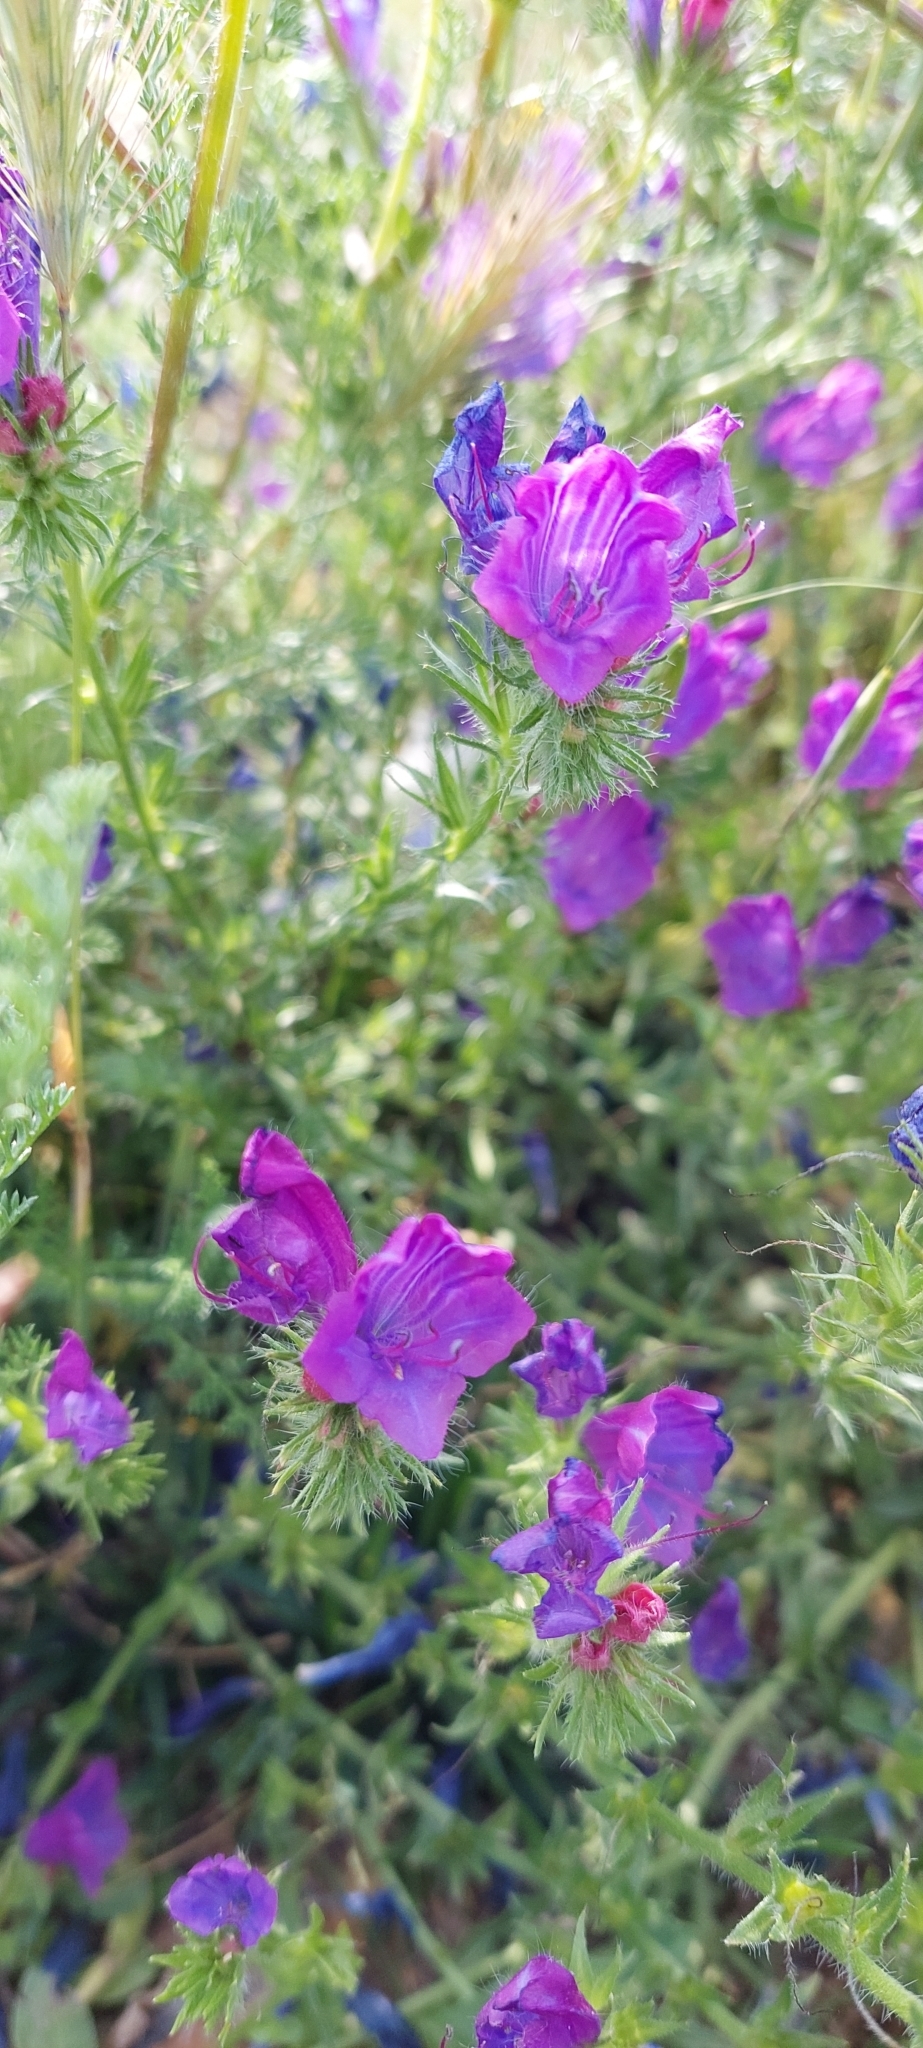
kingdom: Plantae
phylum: Tracheophyta
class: Magnoliopsida
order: Boraginales
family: Boraginaceae
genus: Echium
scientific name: Echium plantagineum
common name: Purple viper's-bugloss
